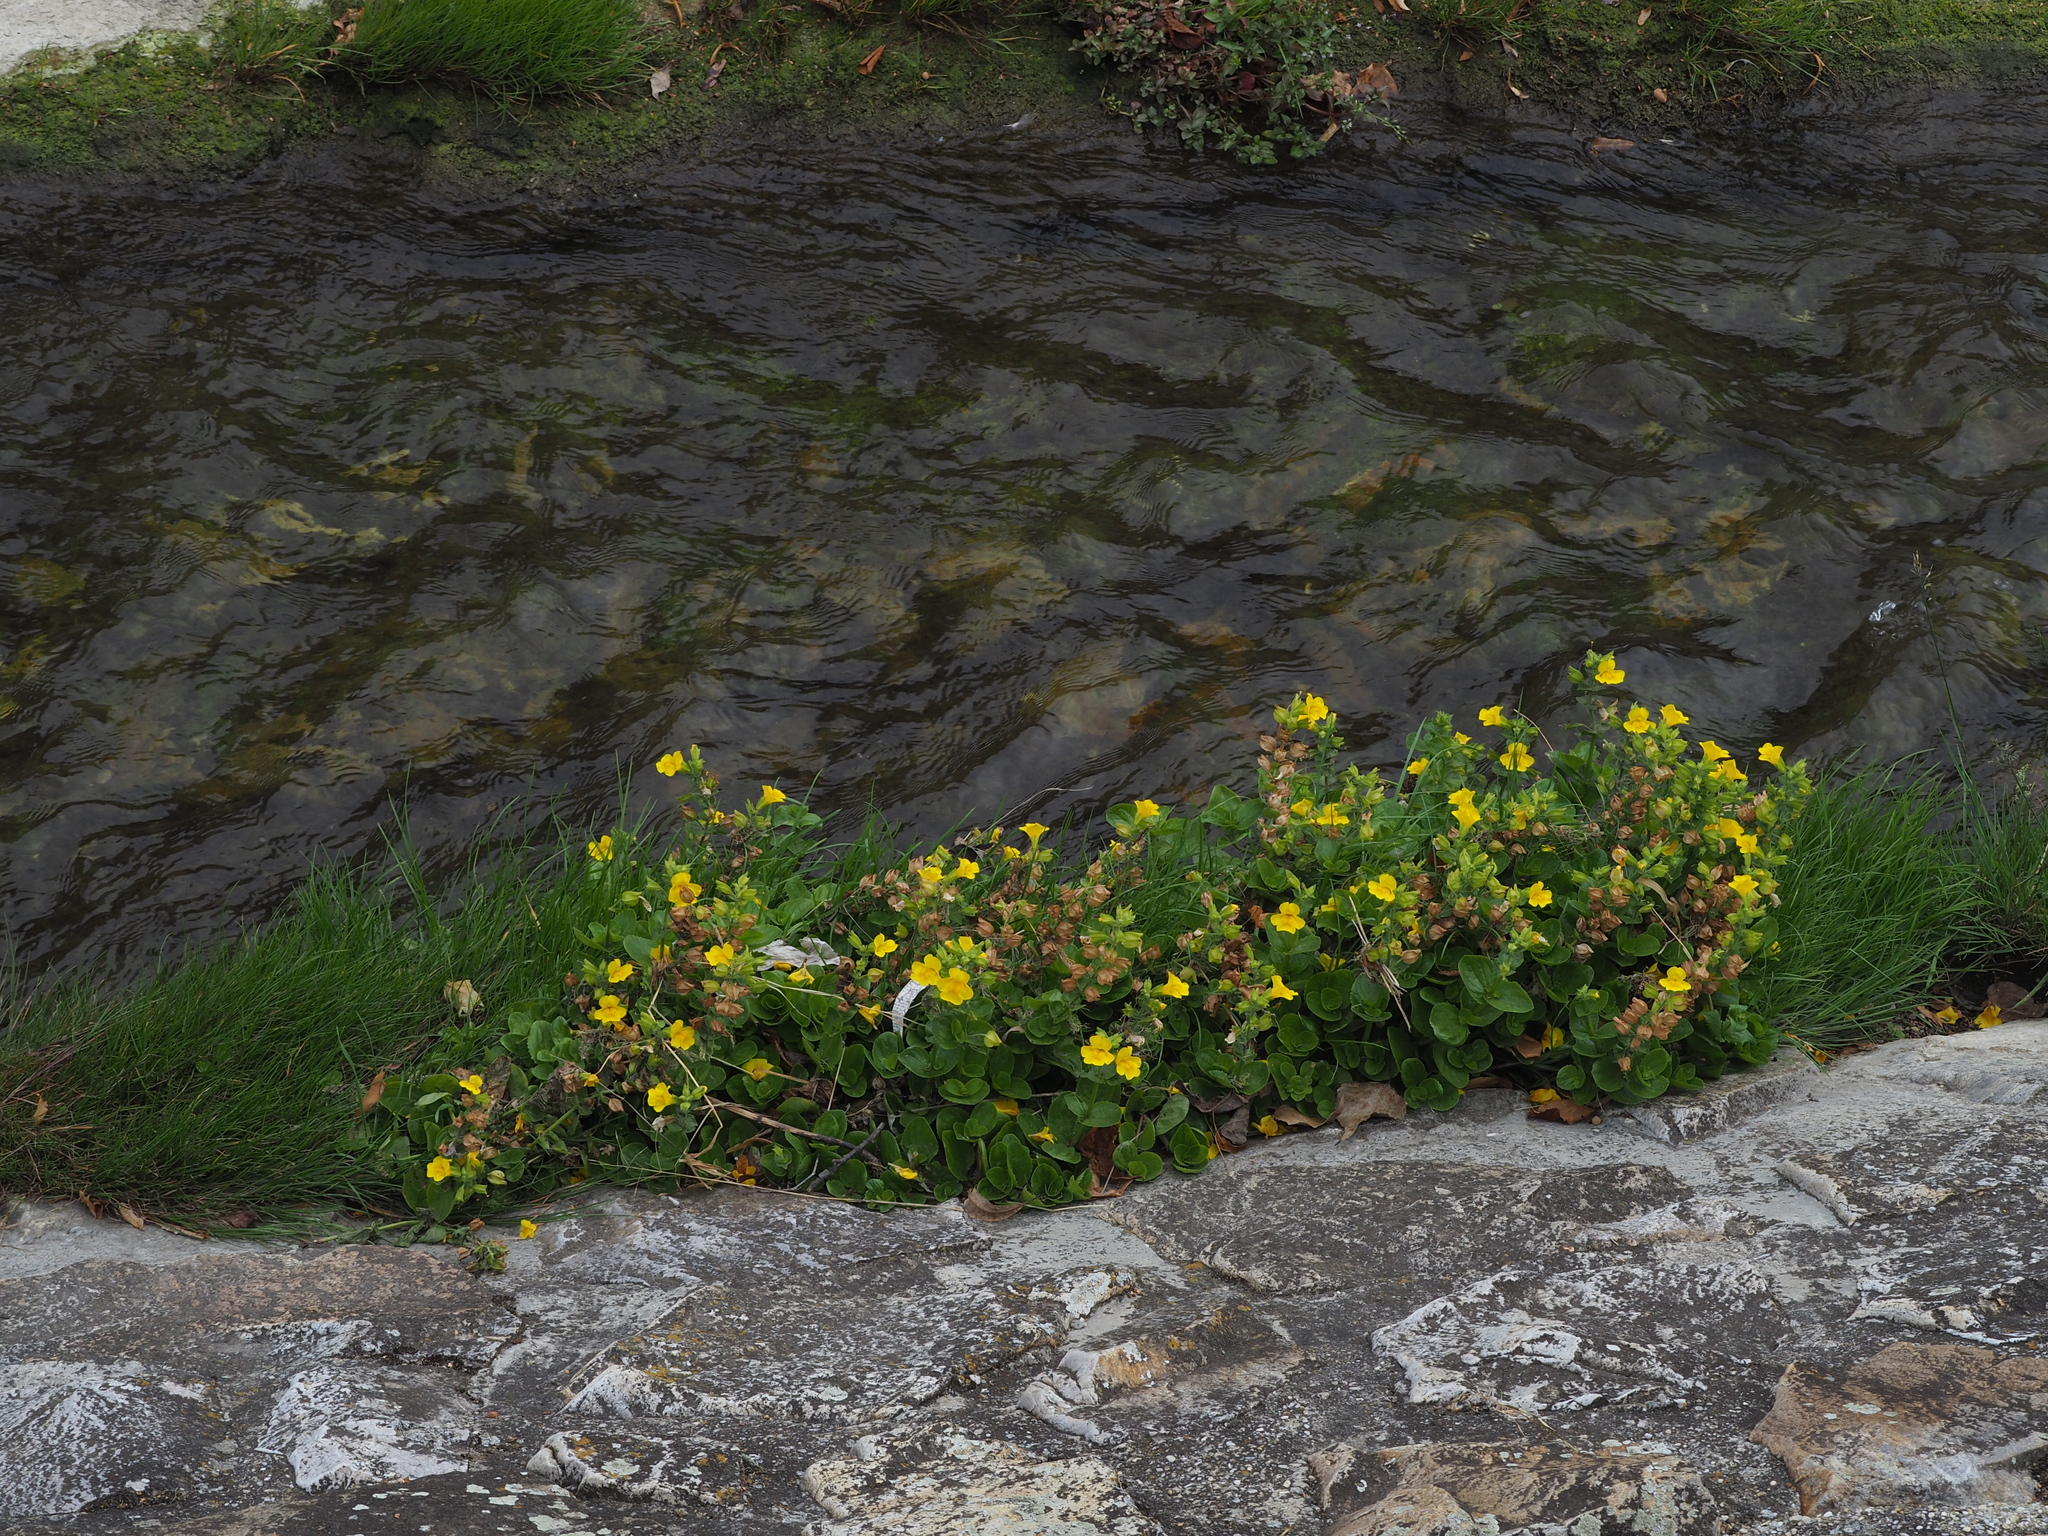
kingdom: Plantae
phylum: Tracheophyta
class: Magnoliopsida
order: Lamiales
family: Phrymaceae
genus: Erythranthe
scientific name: Erythranthe guttata
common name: Monkeyflower
